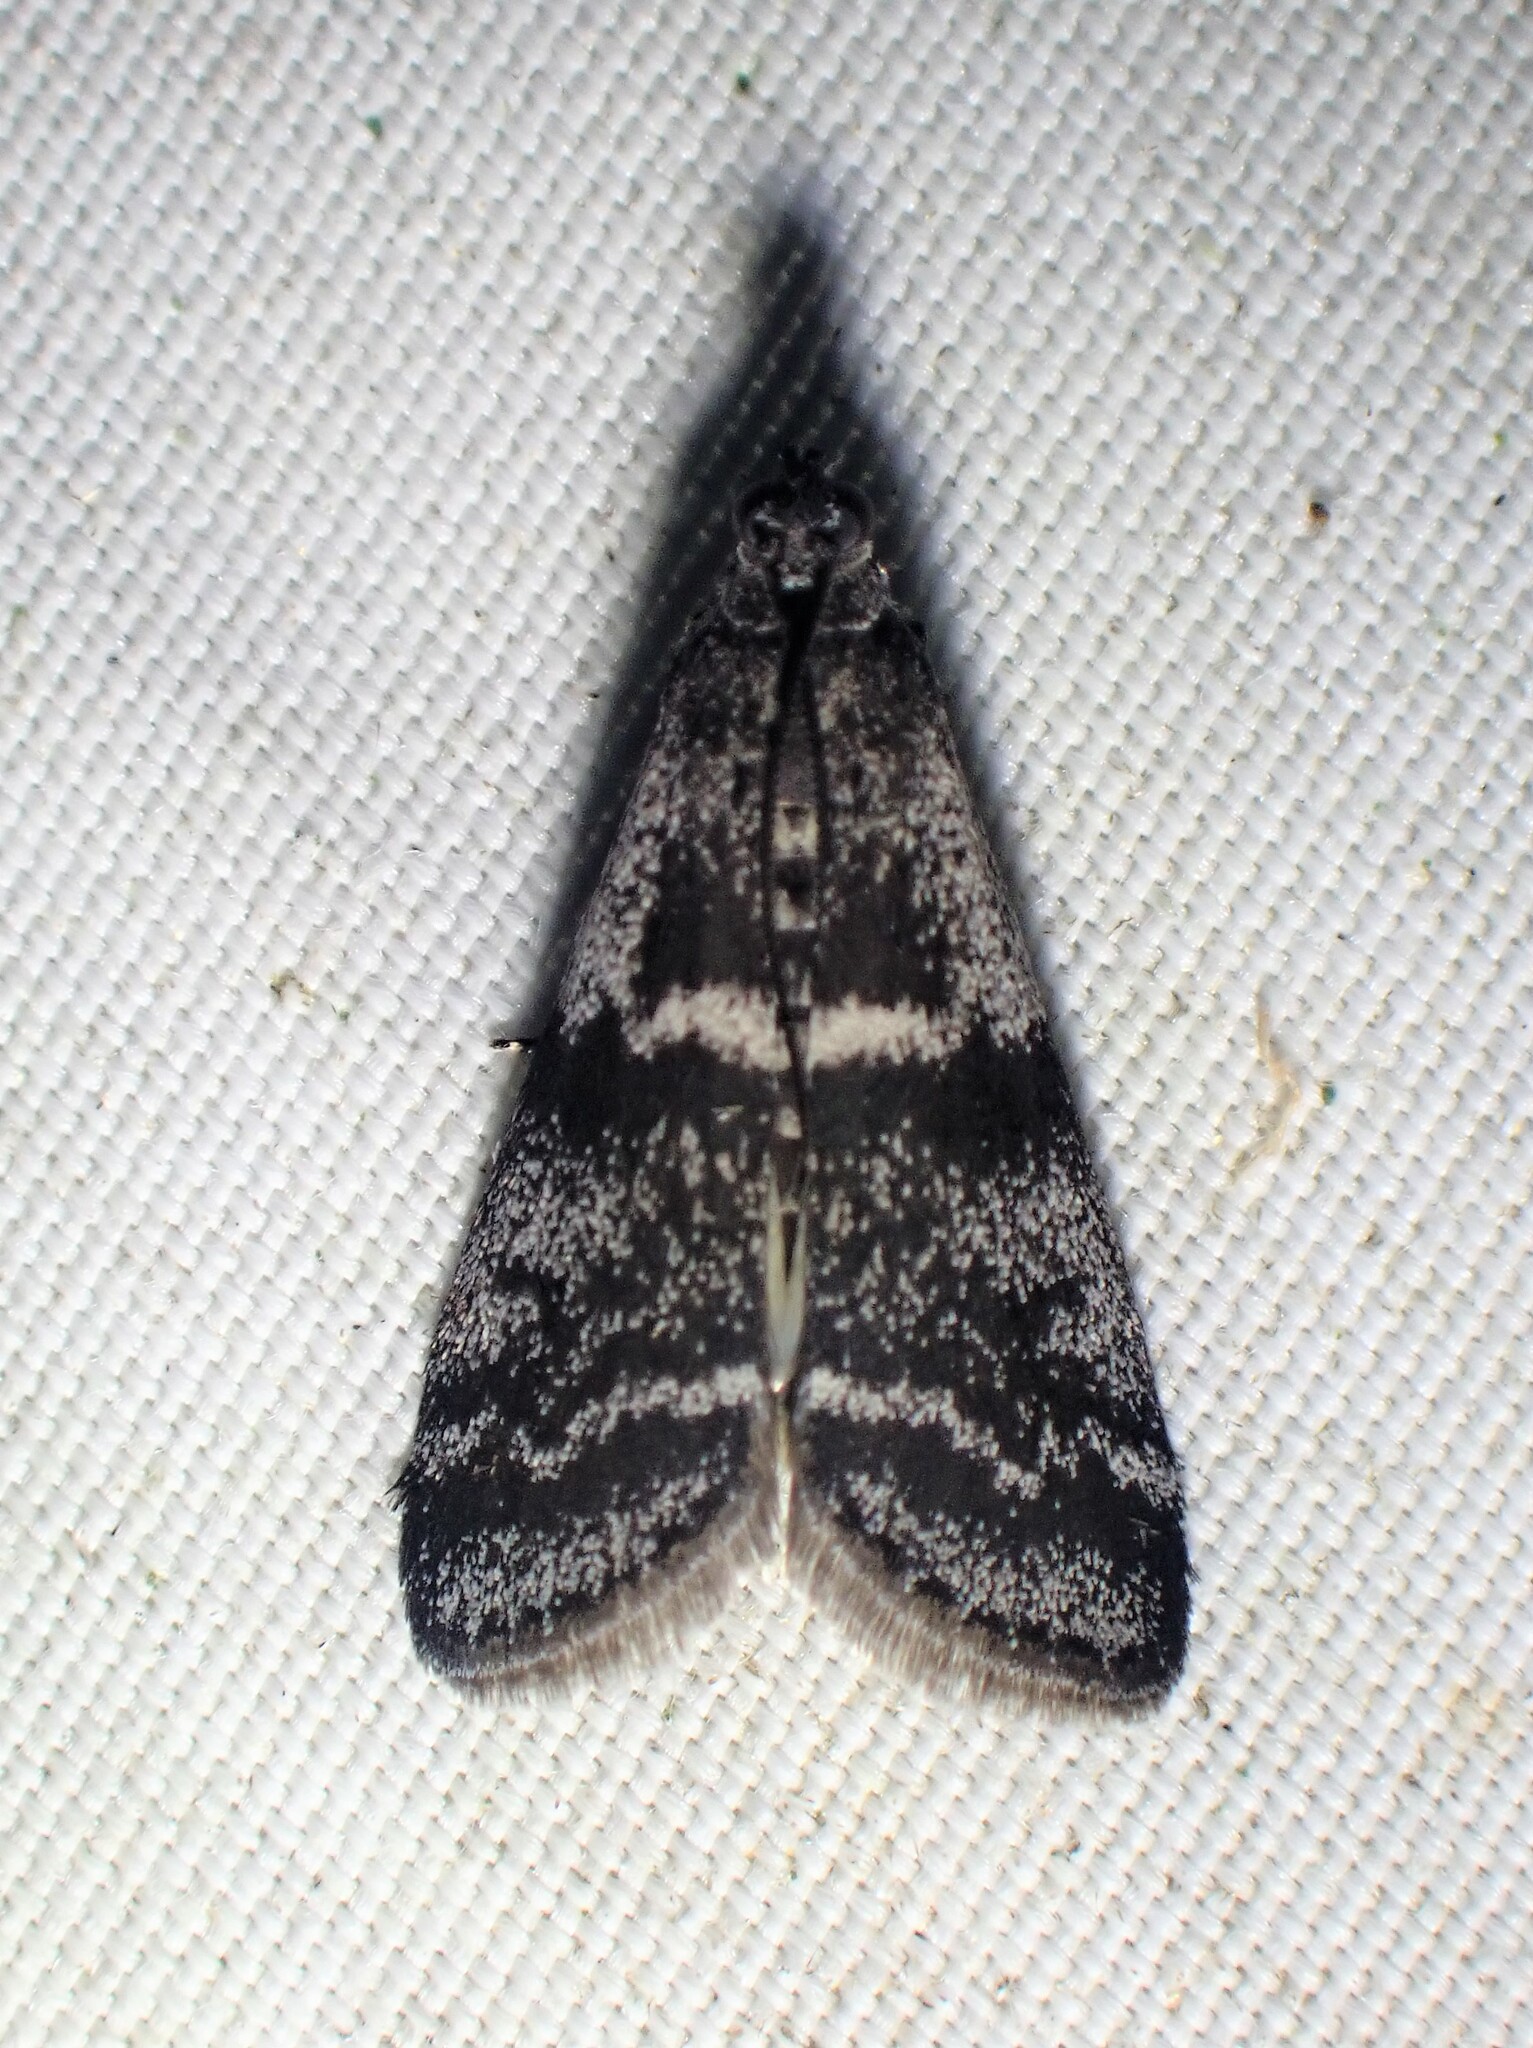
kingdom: Animalia
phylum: Arthropoda
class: Insecta
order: Lepidoptera
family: Pyralidae
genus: Apomyelois
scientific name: Apomyelois bistriatella
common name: Heath knot-horn
